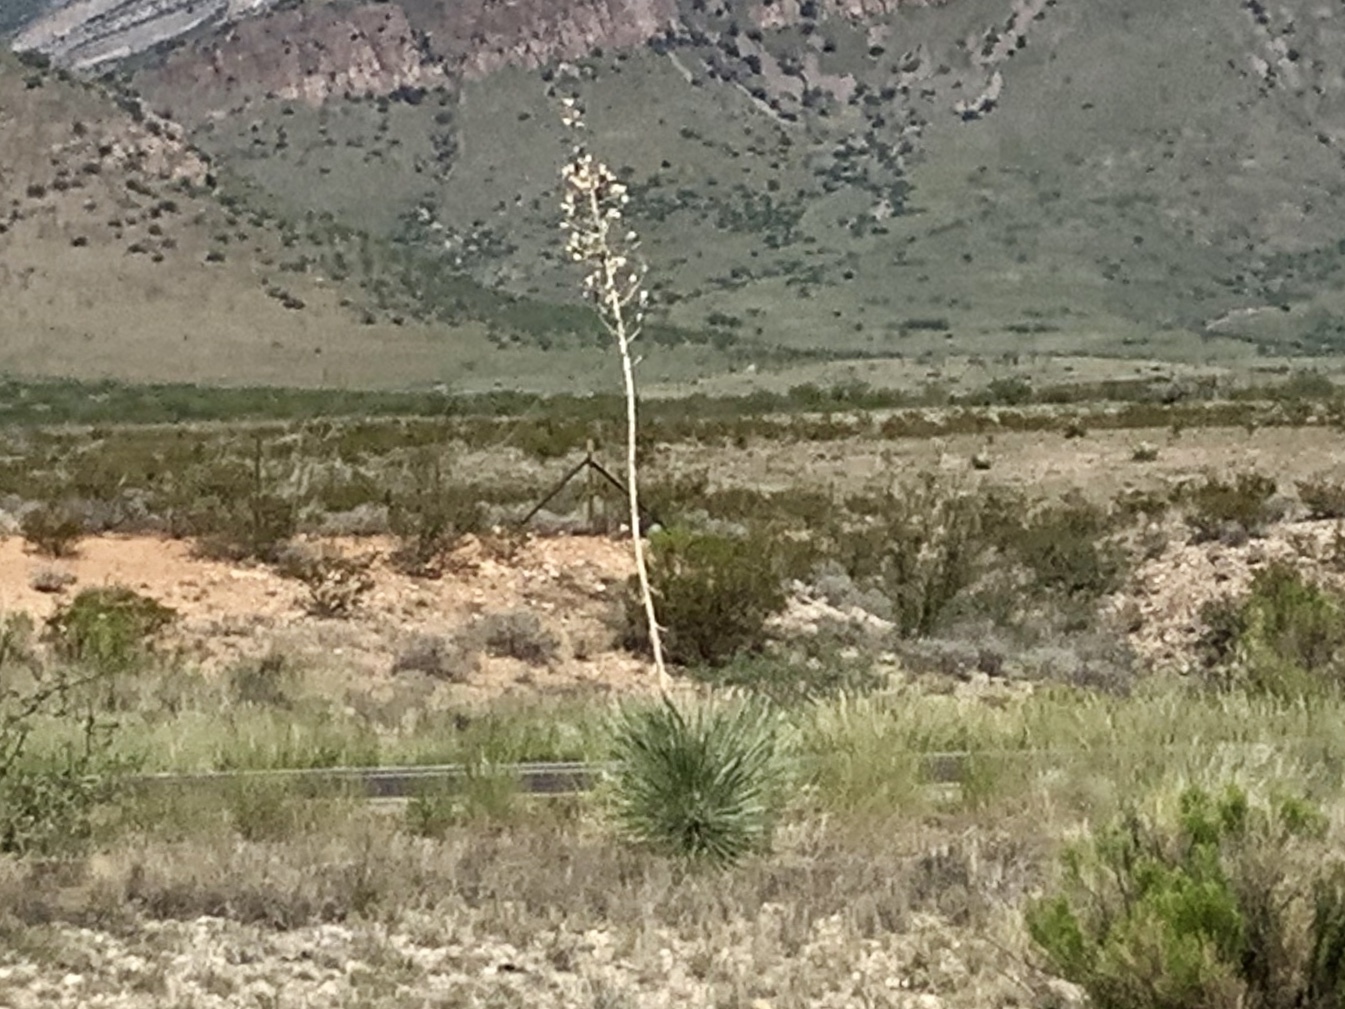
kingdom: Plantae
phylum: Tracheophyta
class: Liliopsida
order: Asparagales
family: Asparagaceae
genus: Yucca
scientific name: Yucca elata
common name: Palmella
